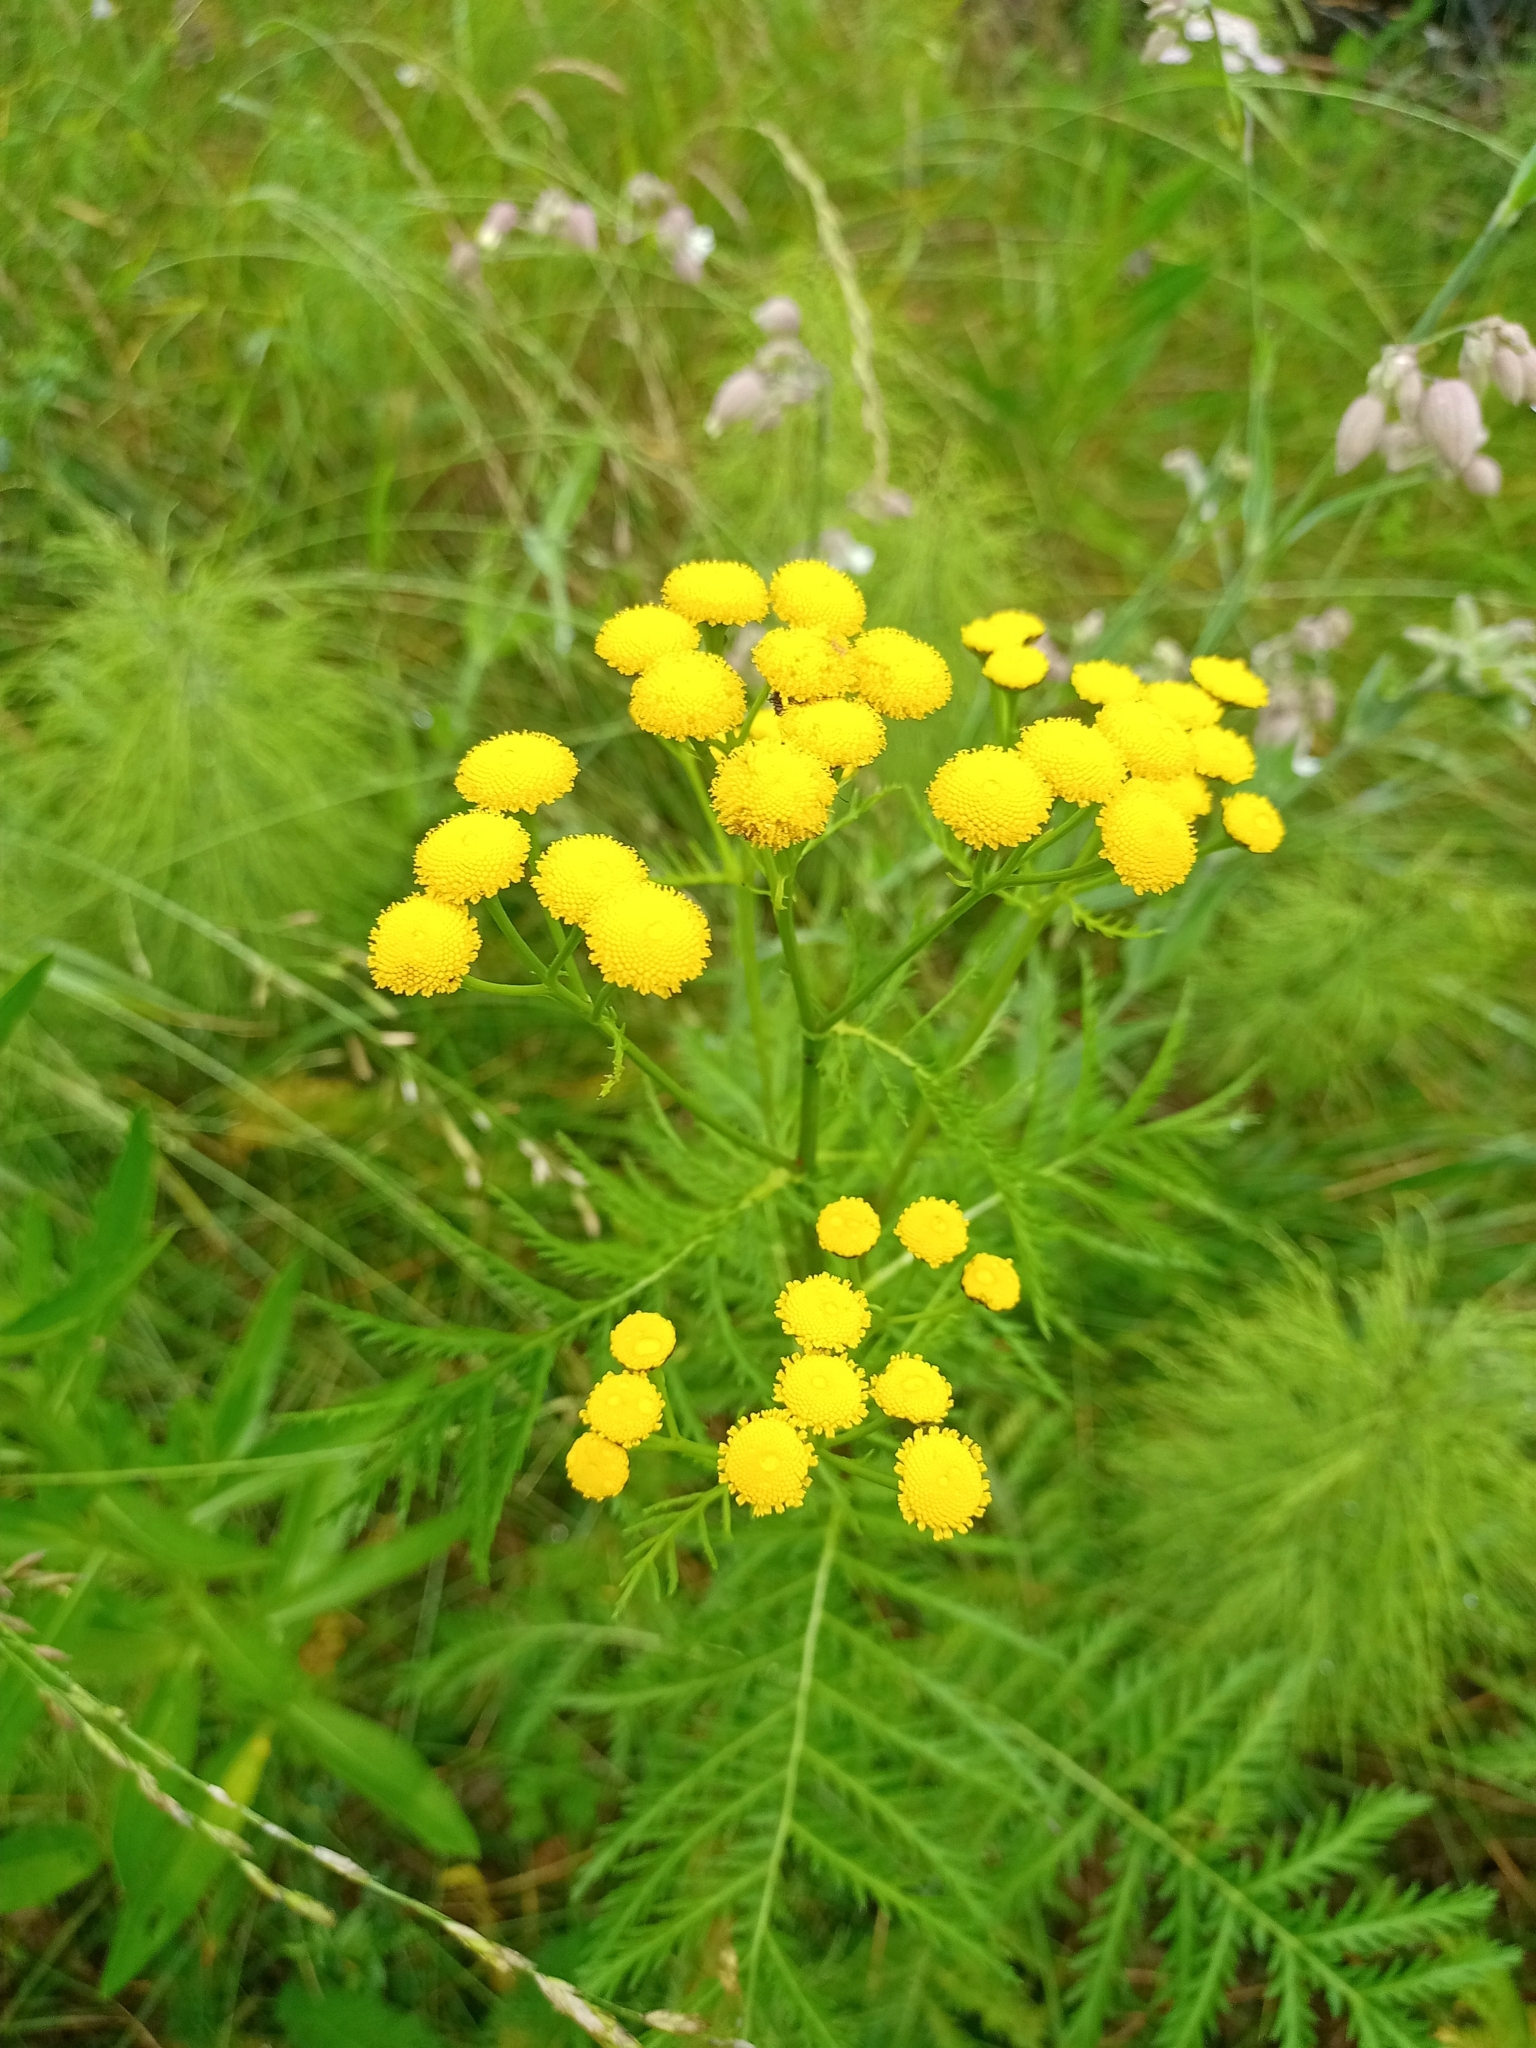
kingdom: Plantae
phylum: Tracheophyta
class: Magnoliopsida
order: Asterales
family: Asteraceae
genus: Tanacetum
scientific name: Tanacetum vulgare
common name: Common tansy
